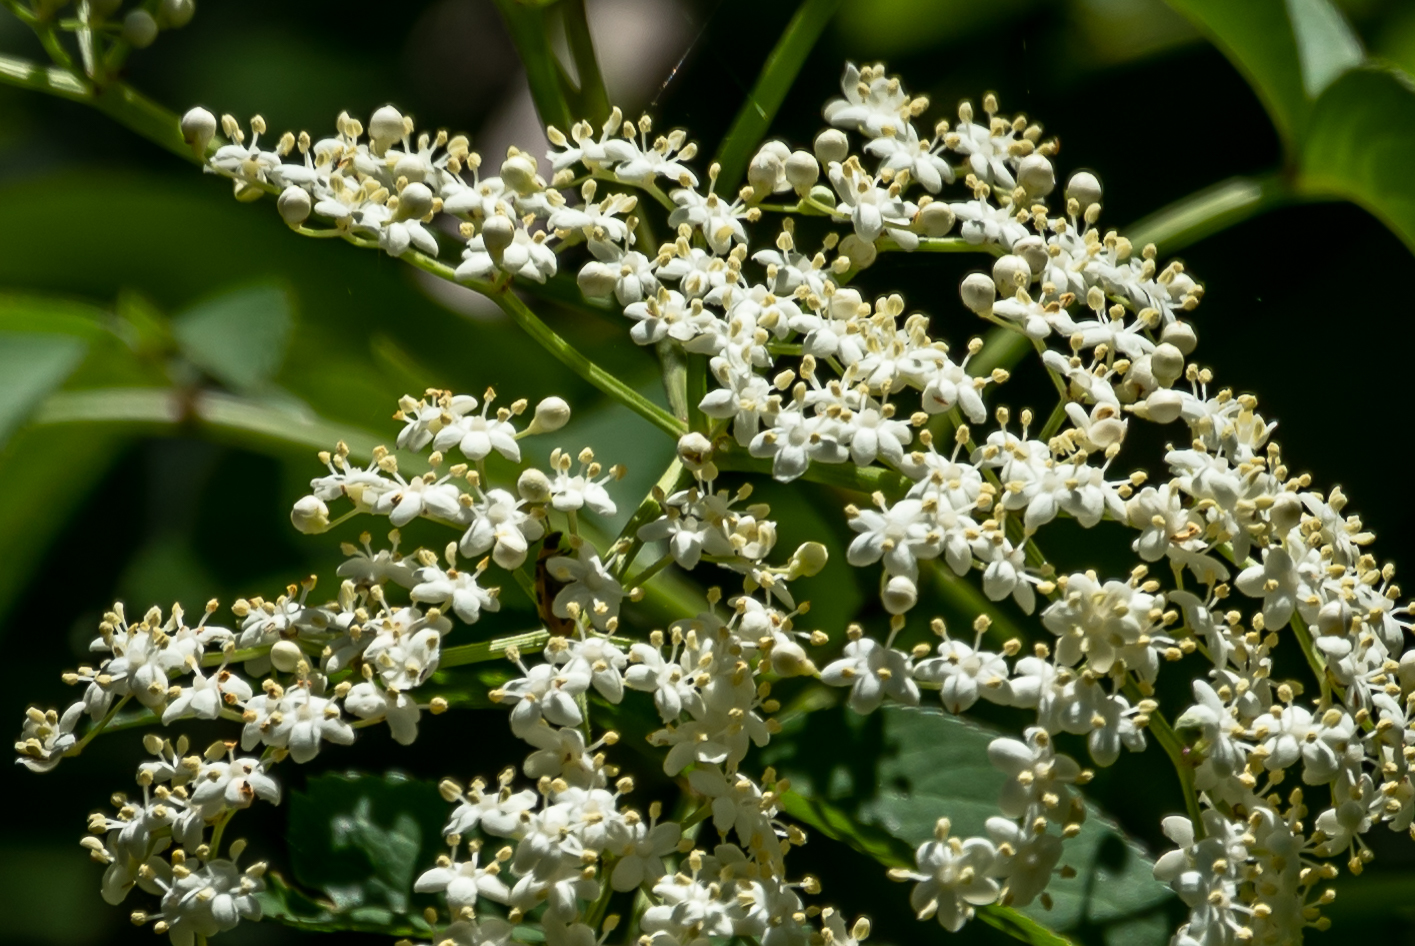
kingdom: Plantae
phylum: Tracheophyta
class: Magnoliopsida
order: Dipsacales
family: Viburnaceae
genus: Sambucus
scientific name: Sambucus canadensis
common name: American elder
